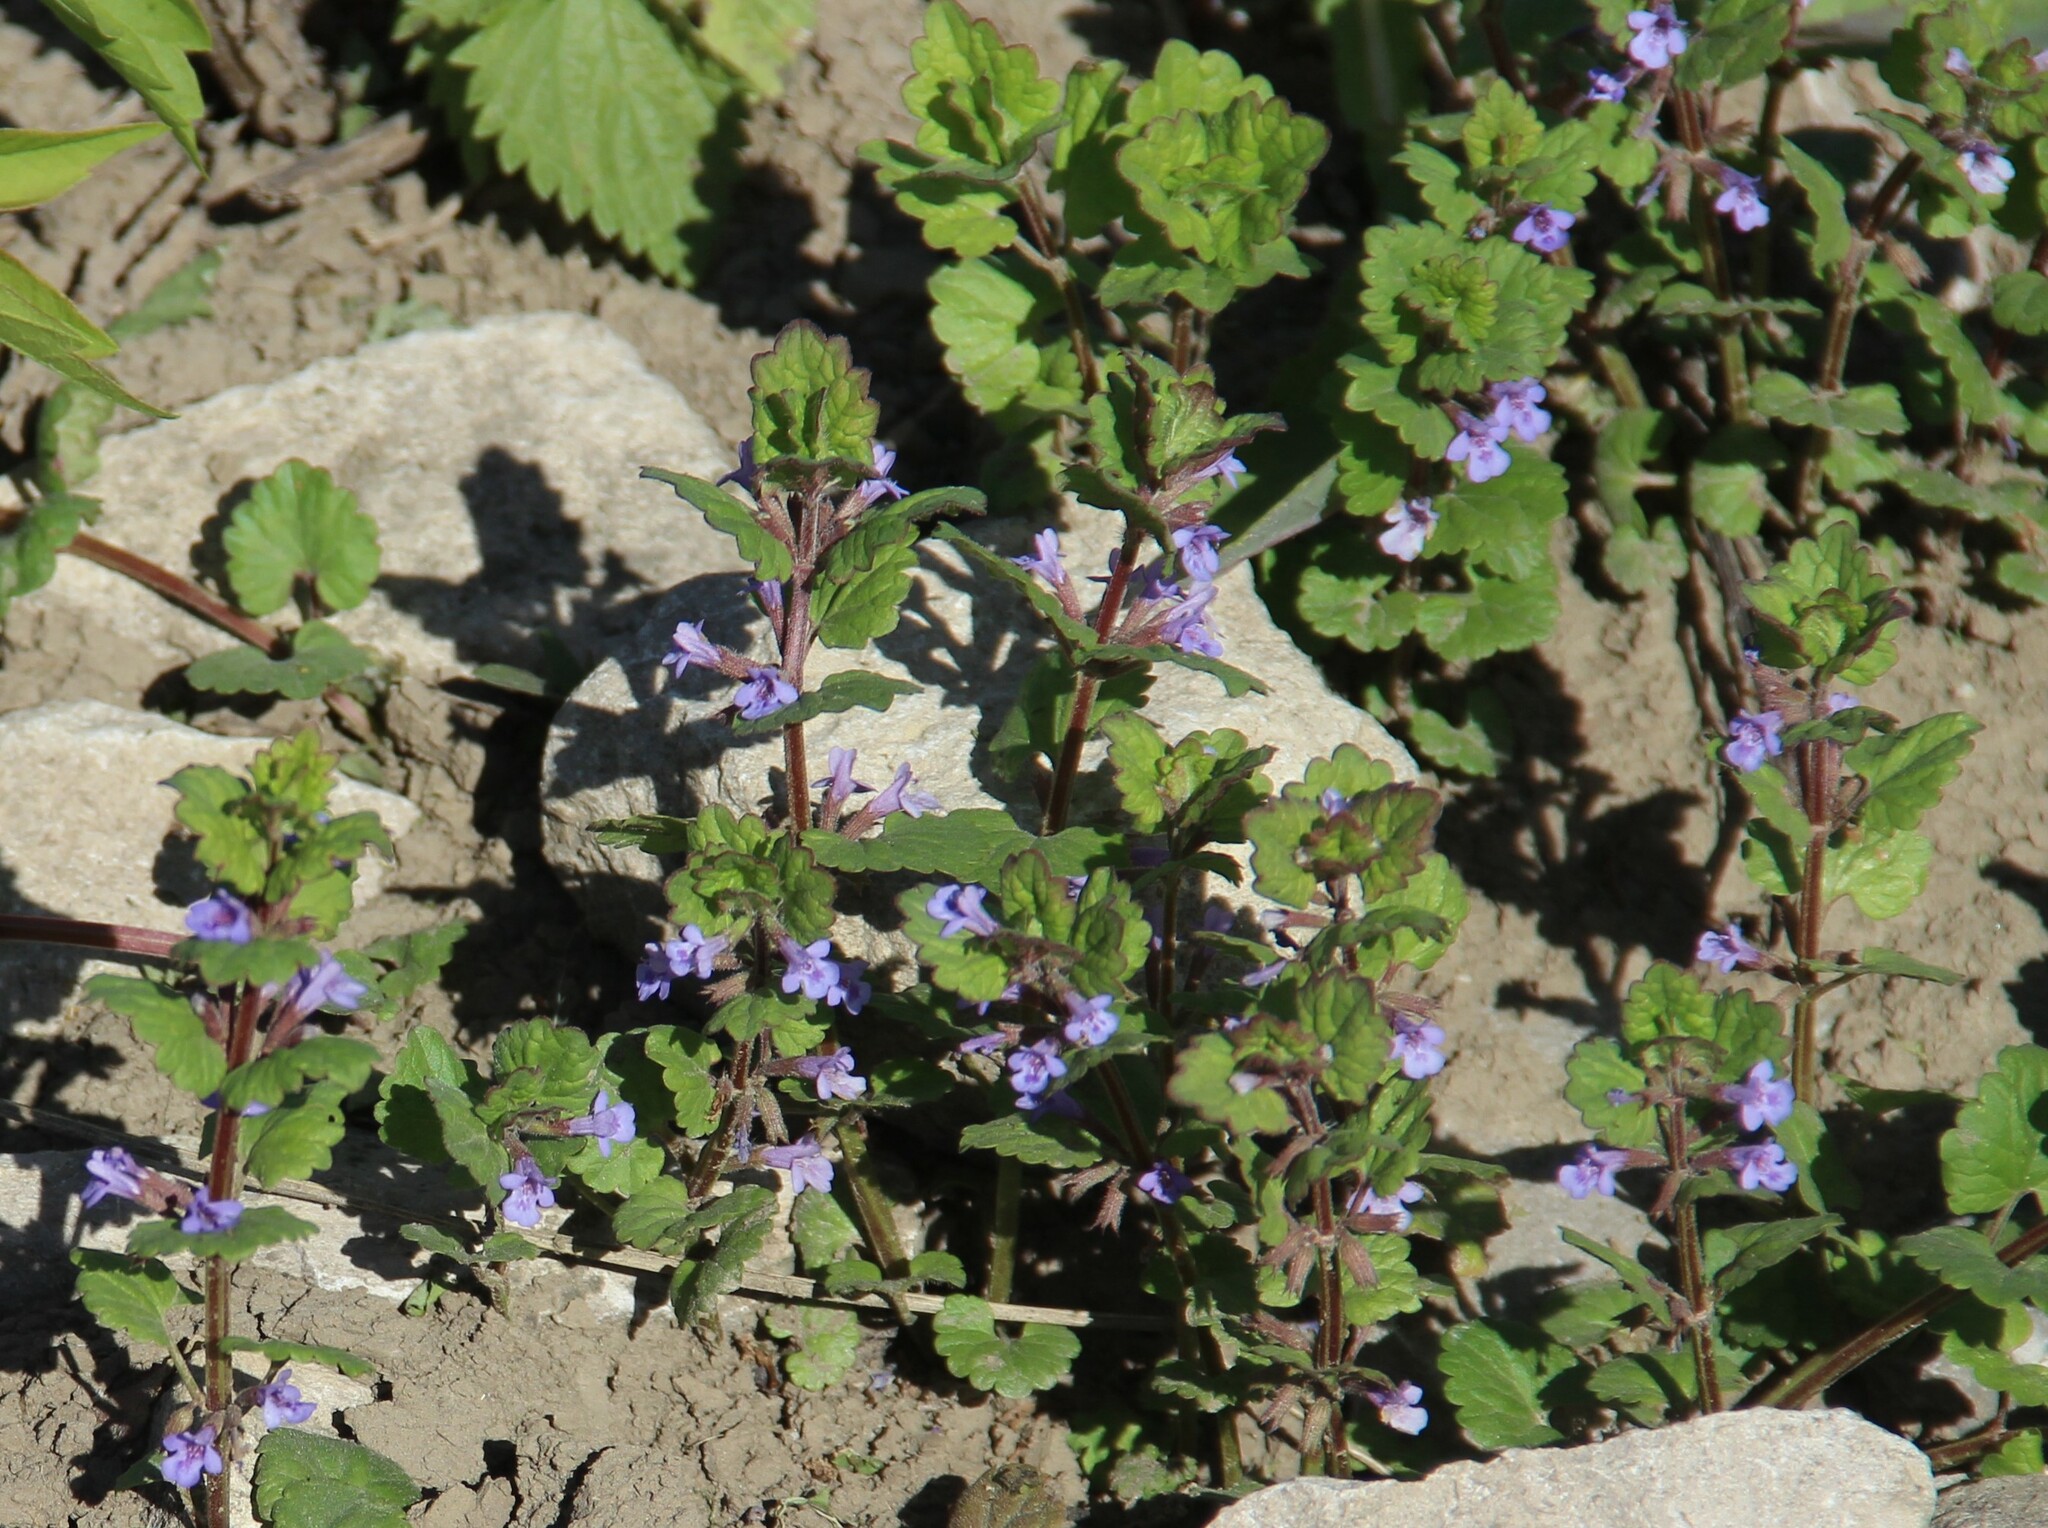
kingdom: Plantae
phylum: Tracheophyta
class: Magnoliopsida
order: Lamiales
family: Lamiaceae
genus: Glechoma
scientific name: Glechoma hederacea
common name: Ground ivy
